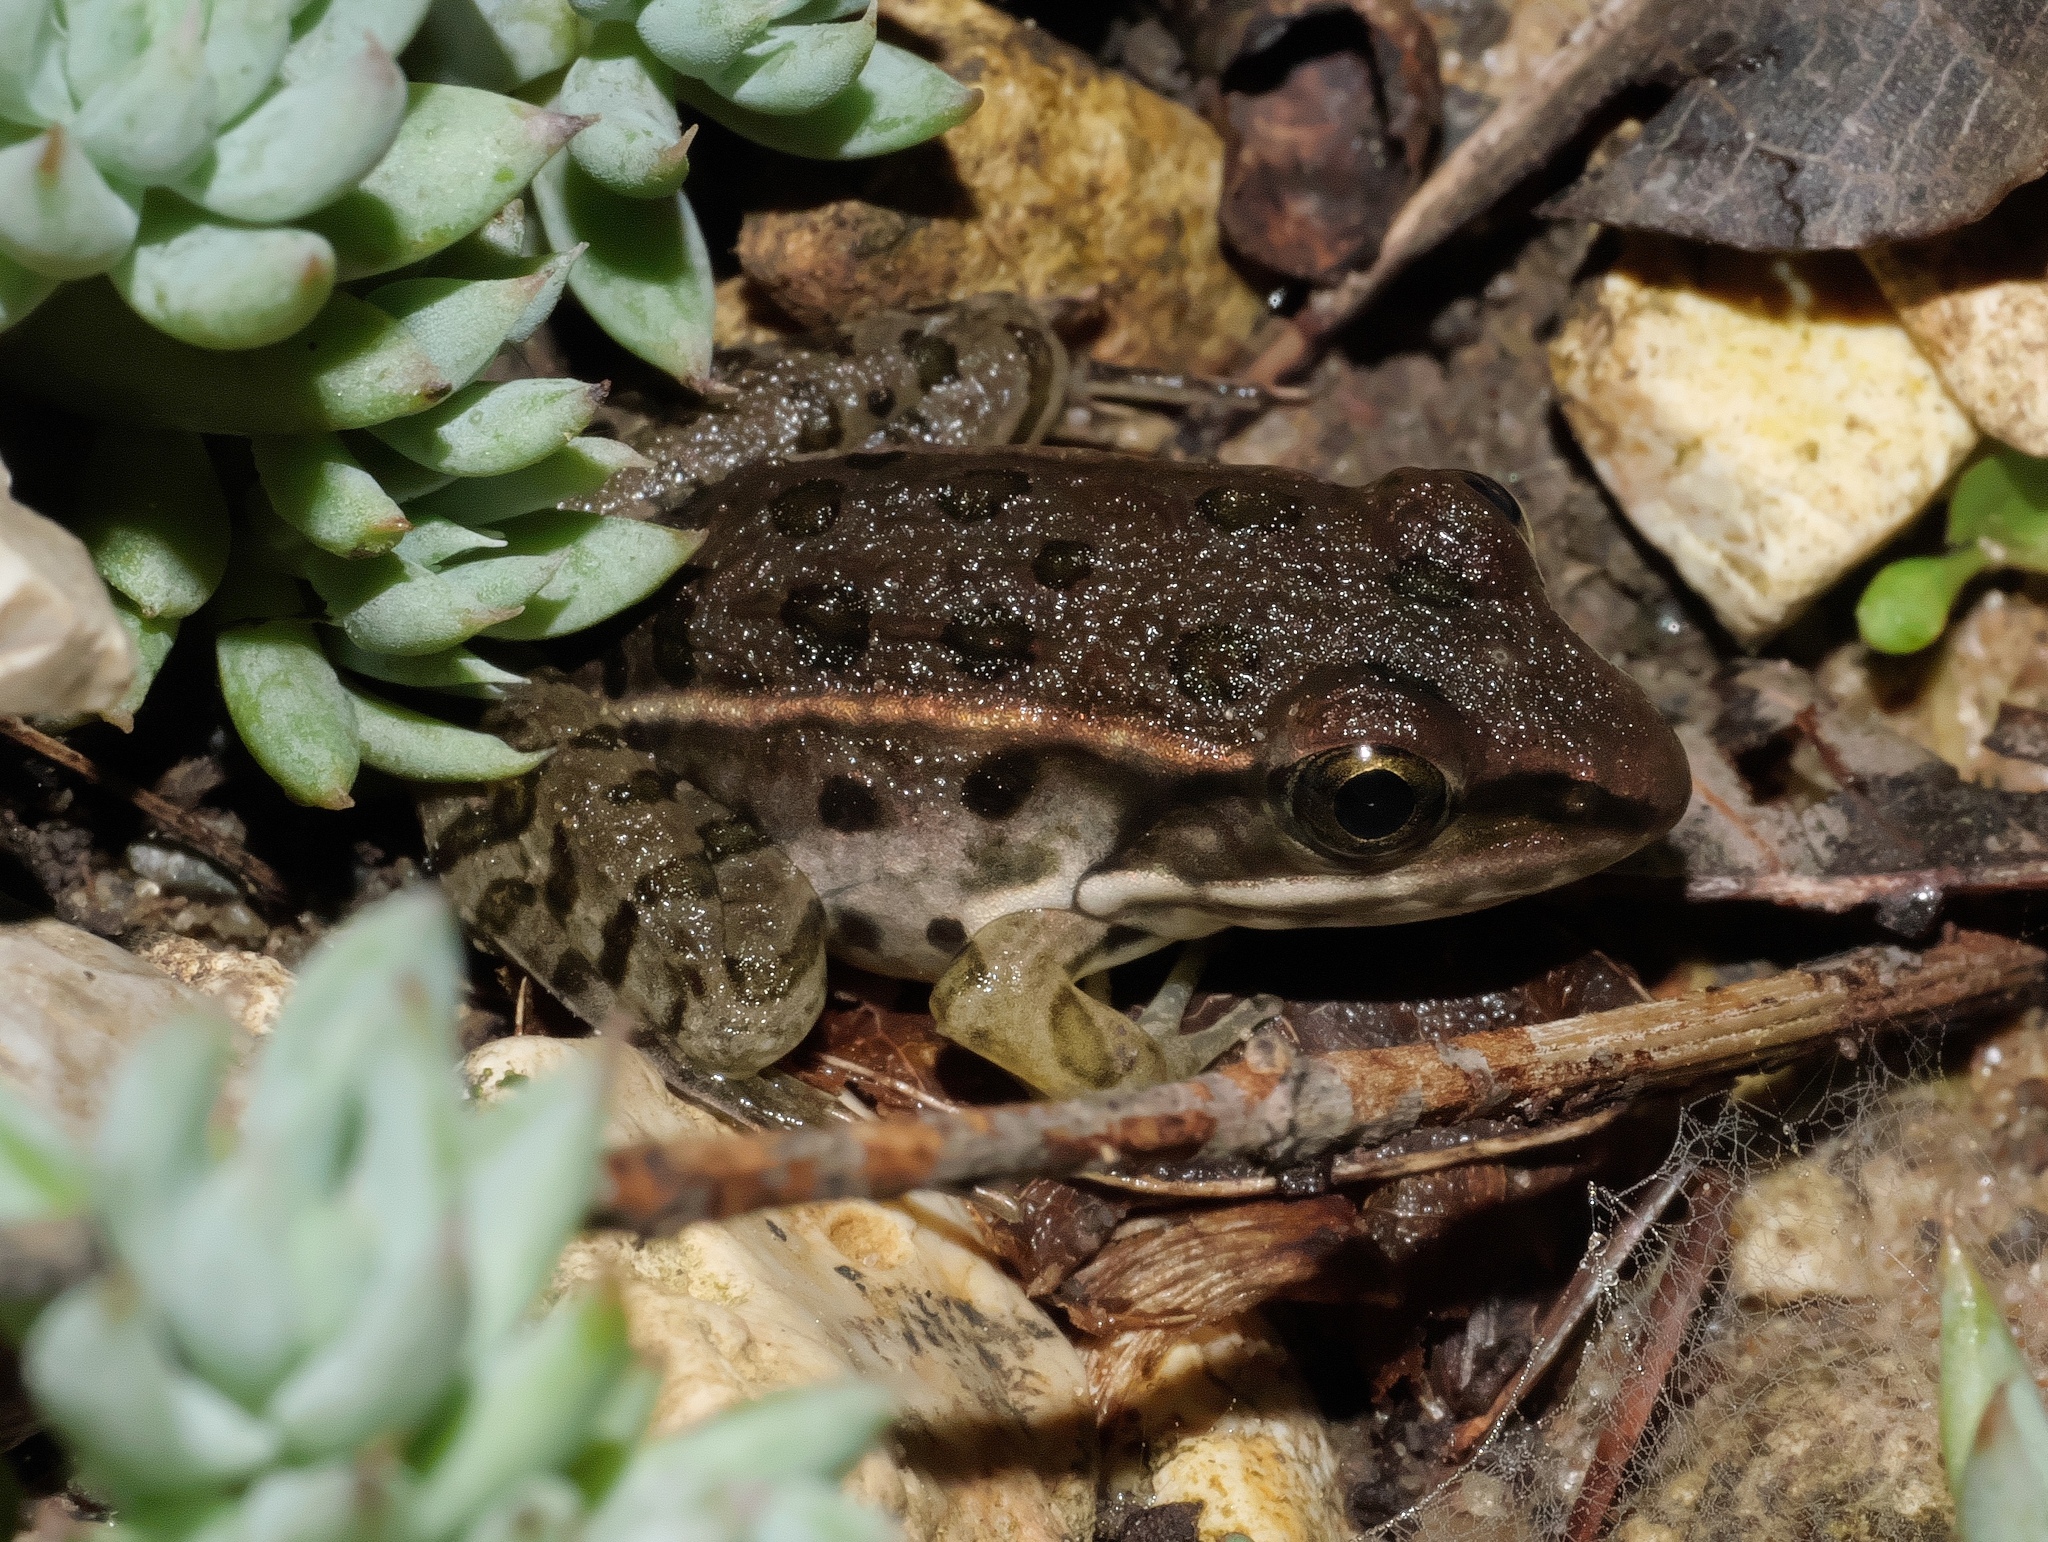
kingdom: Animalia
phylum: Chordata
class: Amphibia
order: Anura
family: Ranidae
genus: Lithobates
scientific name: Lithobates sphenocephalus
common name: Southern leopard frog
